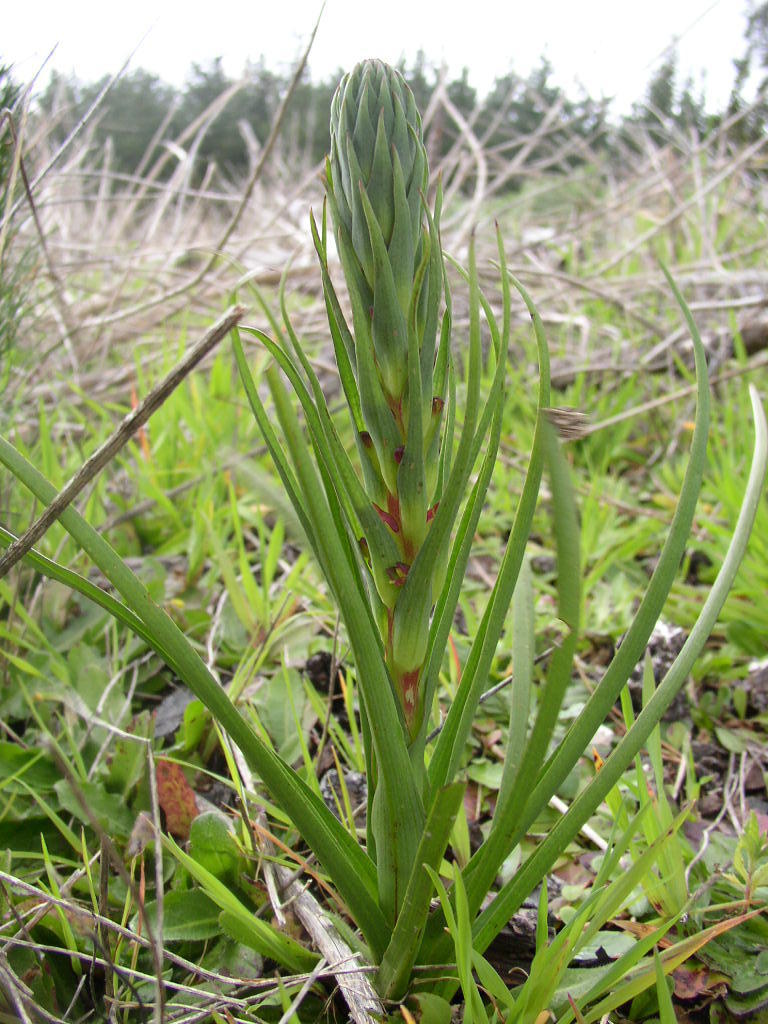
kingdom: Plantae
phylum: Tracheophyta
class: Liliopsida
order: Asparagales
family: Orchidaceae
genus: Disa
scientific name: Disa bracteata
